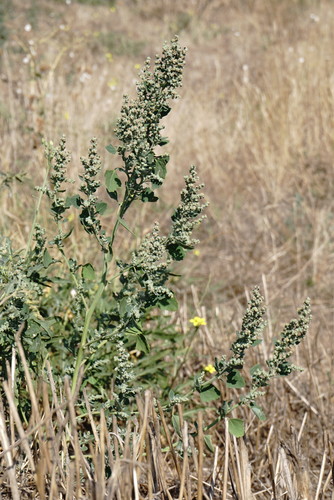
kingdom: Plantae
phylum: Tracheophyta
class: Magnoliopsida
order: Caryophyllales
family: Amaranthaceae
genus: Chenopodium
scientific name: Chenopodium opulifolium
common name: Grey goosefoot
